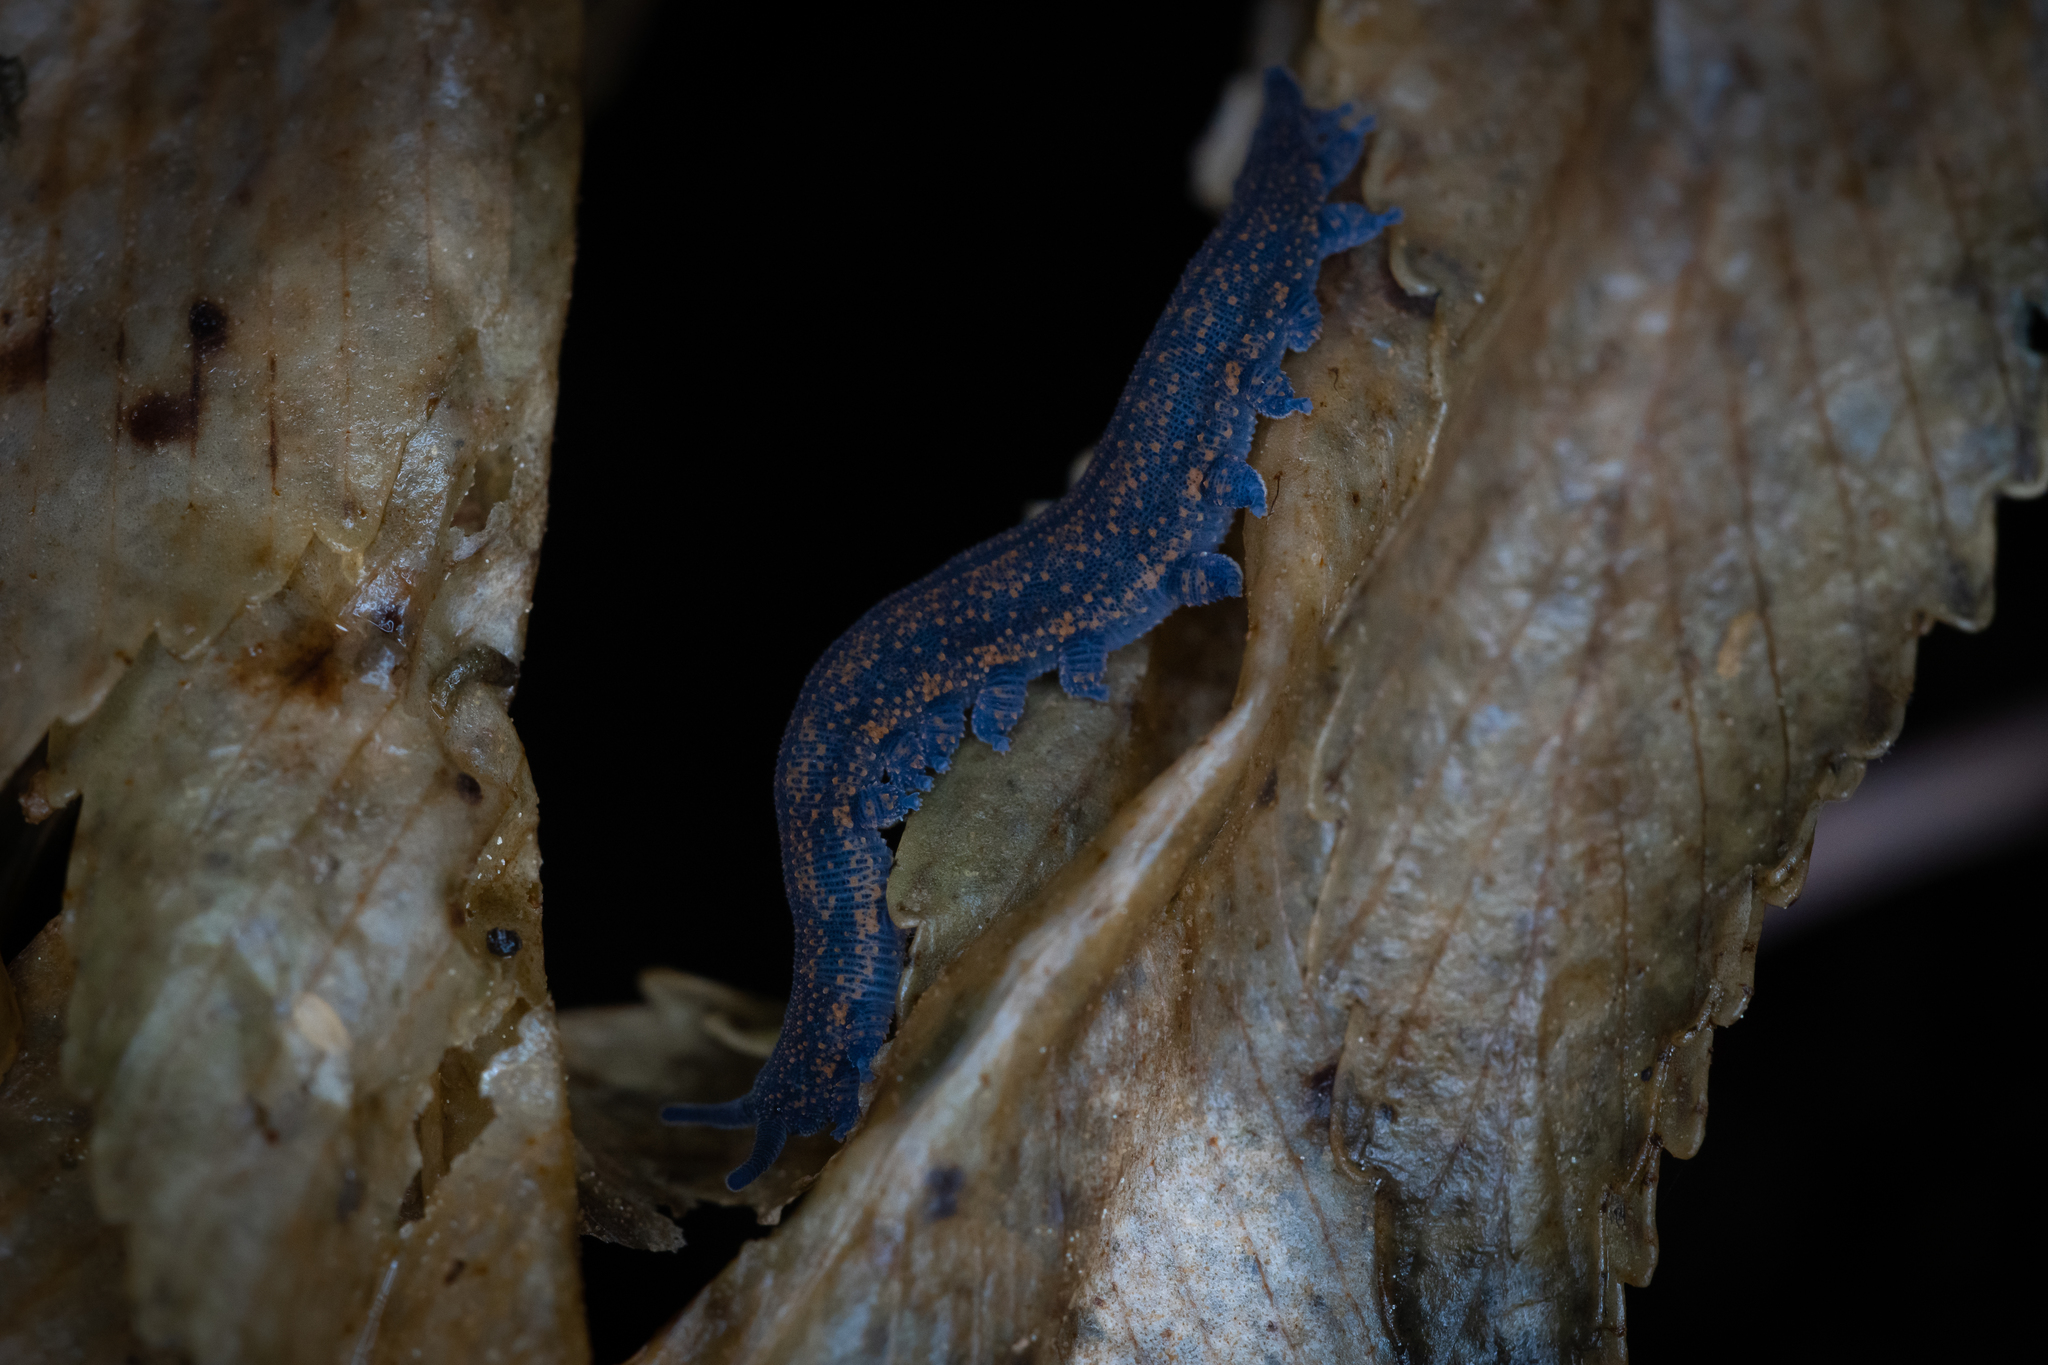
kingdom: Animalia
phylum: Onychophora
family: Peripatopsidae
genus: Peripatoides
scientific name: Peripatoides novaezealandiae
